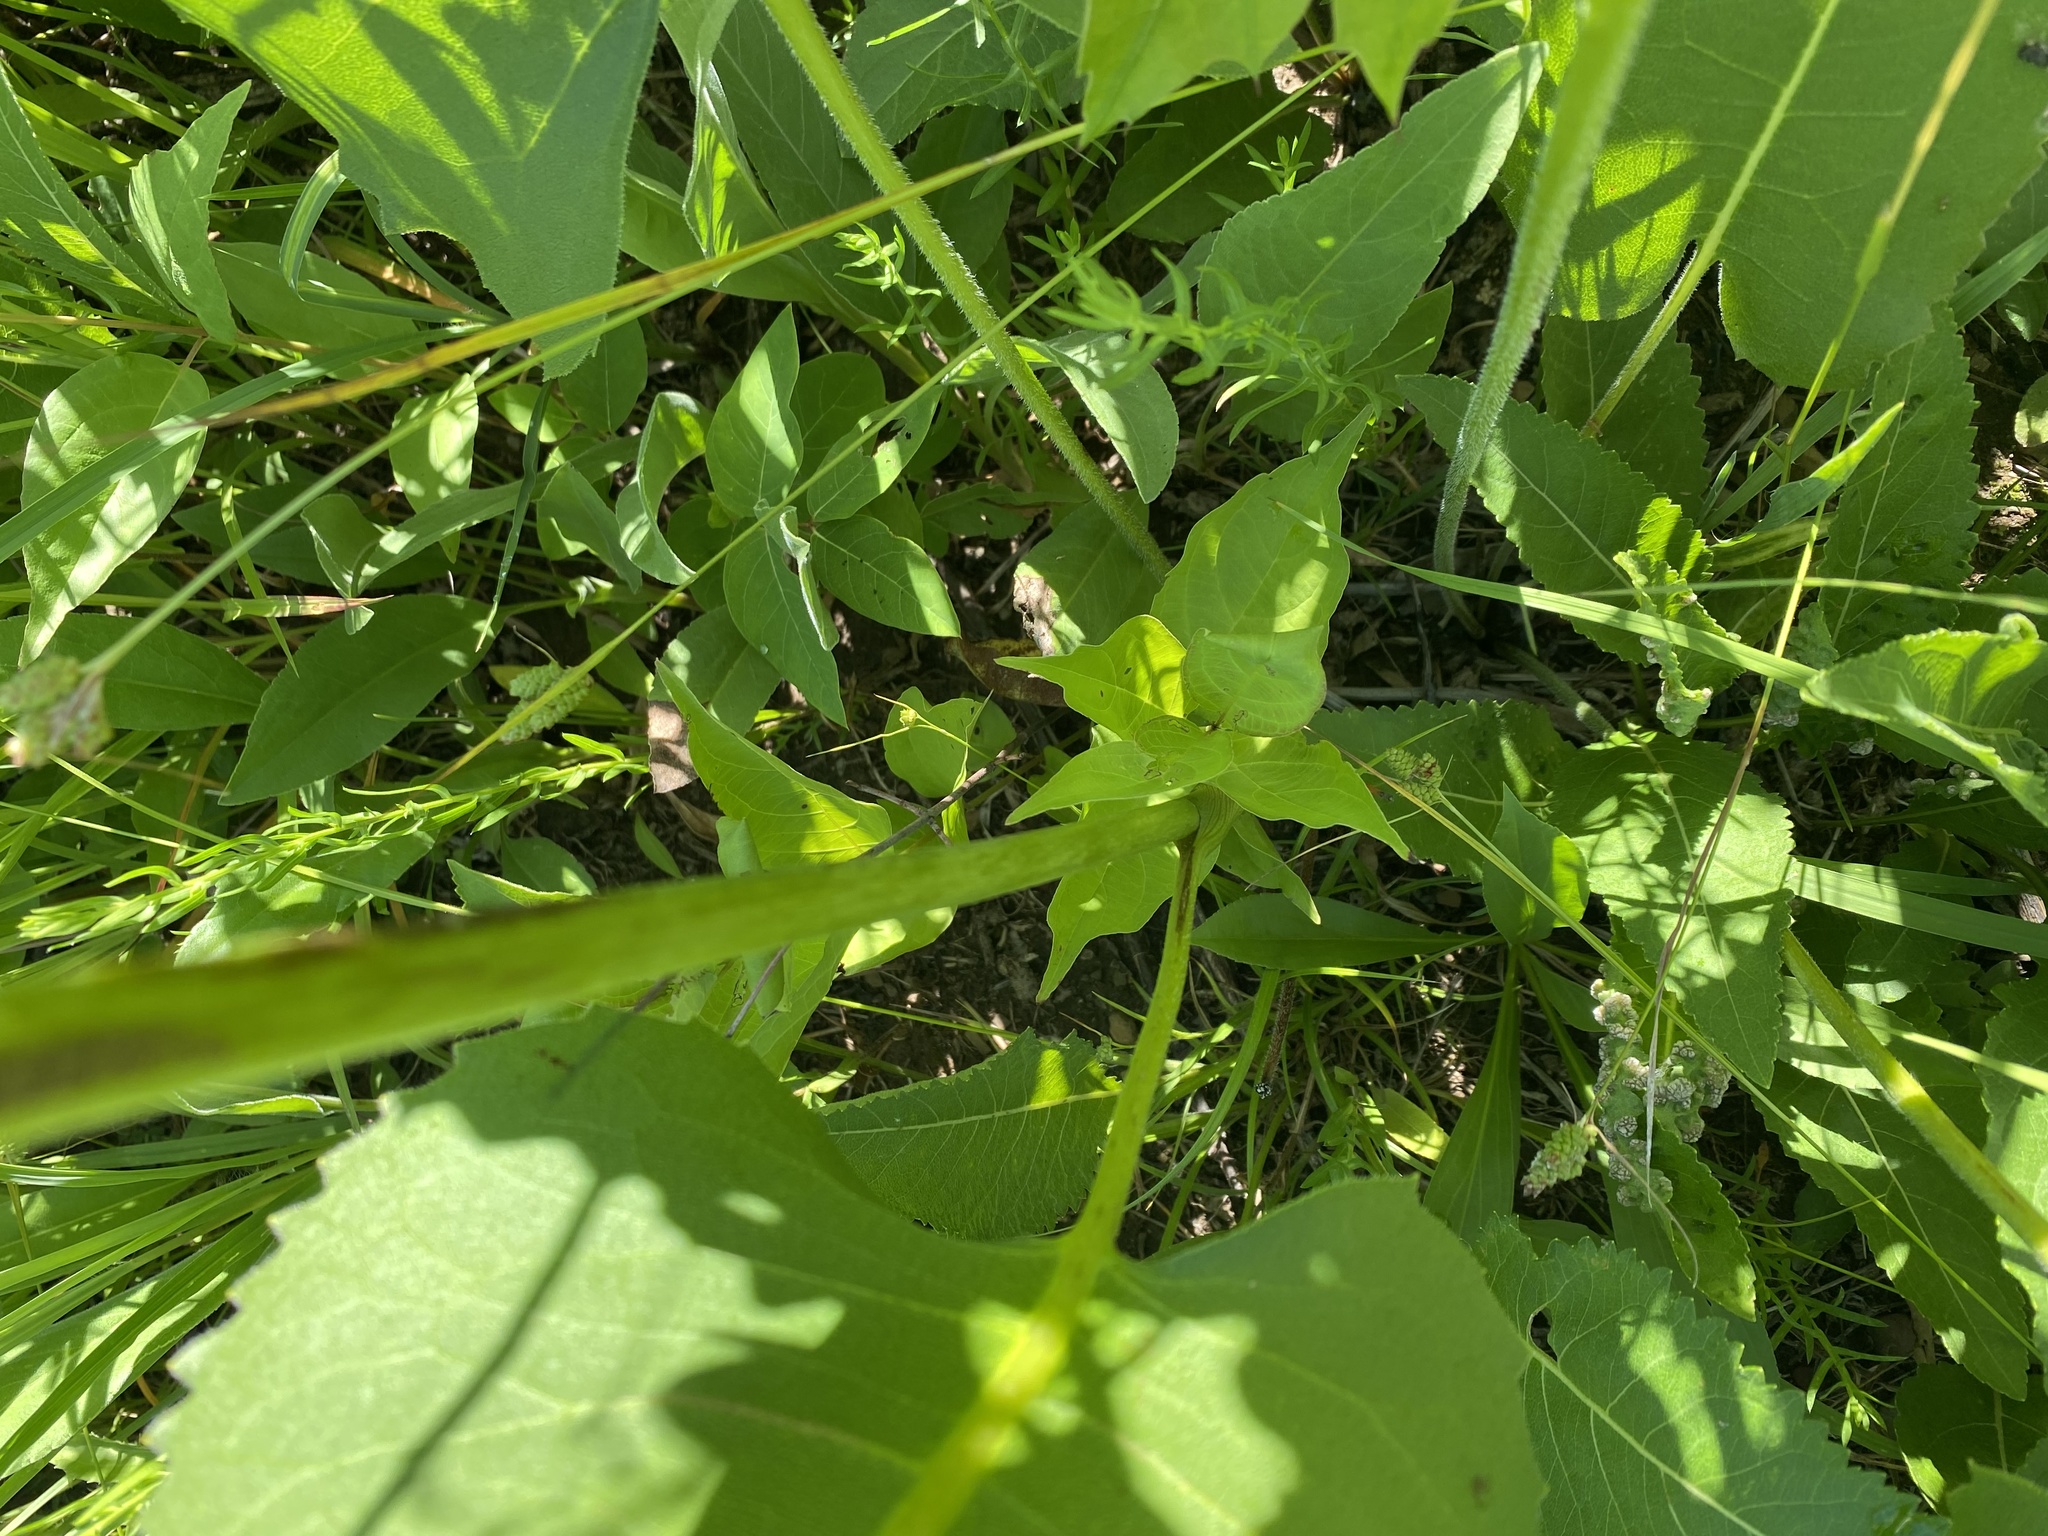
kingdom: Plantae
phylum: Tracheophyta
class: Magnoliopsida
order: Asterales
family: Asteraceae
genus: Silphium
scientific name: Silphium terebinthinaceum
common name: Basal-leaf rosinweed
